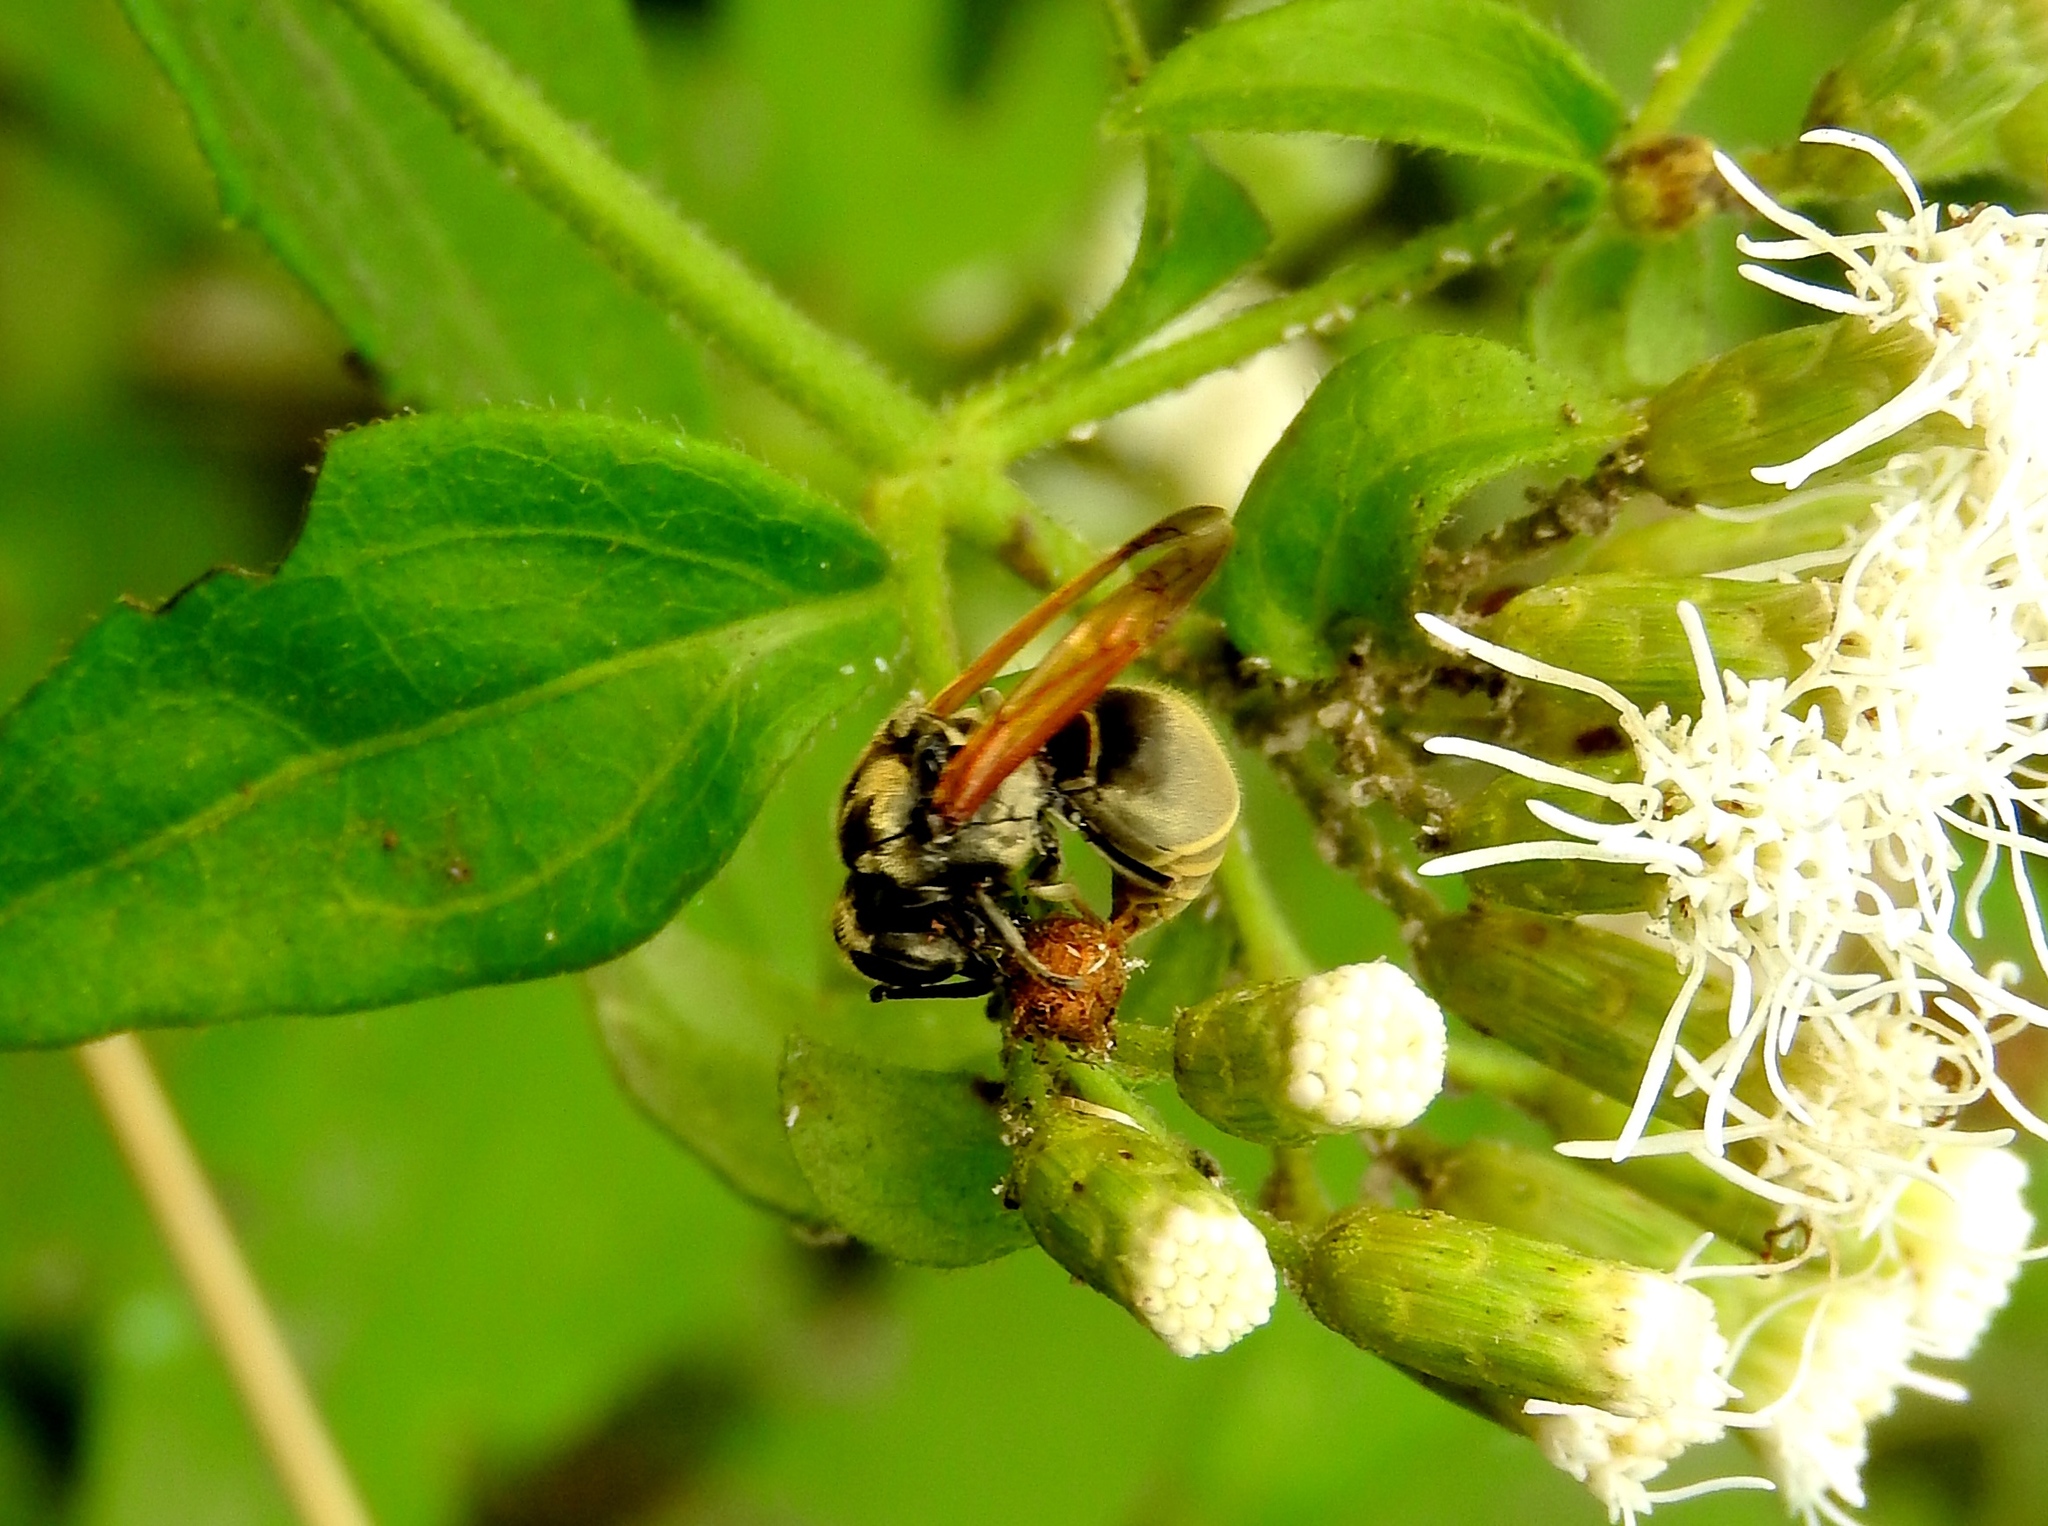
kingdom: Animalia
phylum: Arthropoda
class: Insecta
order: Hymenoptera
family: Vespidae
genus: Brachygastra
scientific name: Brachygastra mellifica
